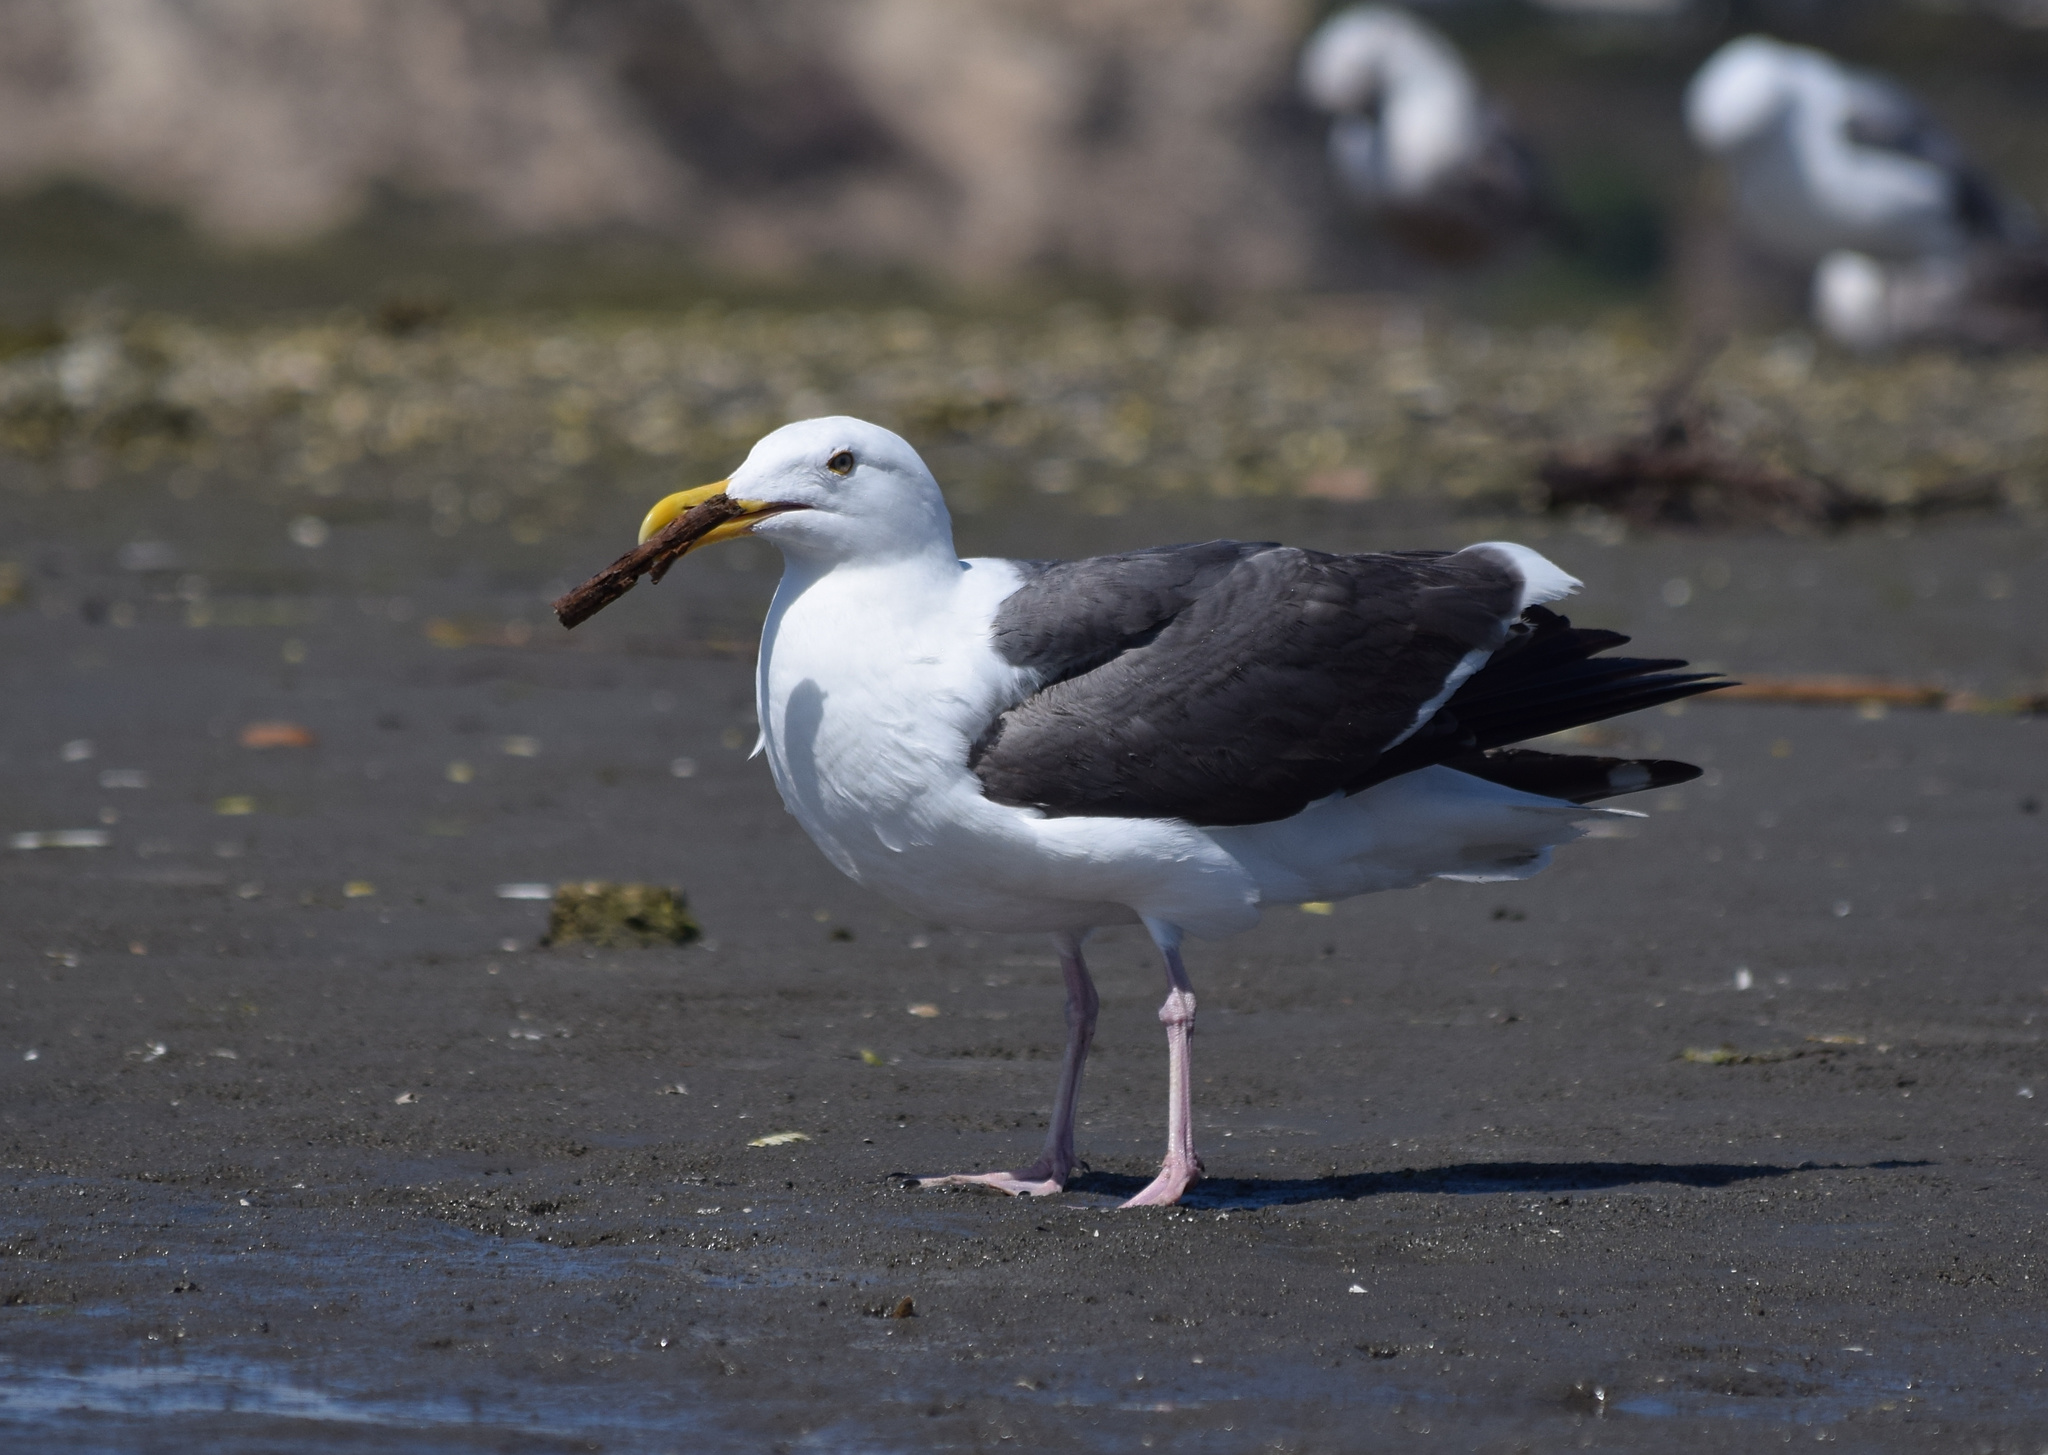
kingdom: Animalia
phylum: Chordata
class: Aves
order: Charadriiformes
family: Laridae
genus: Larus
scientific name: Larus occidentalis
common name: Western gull
